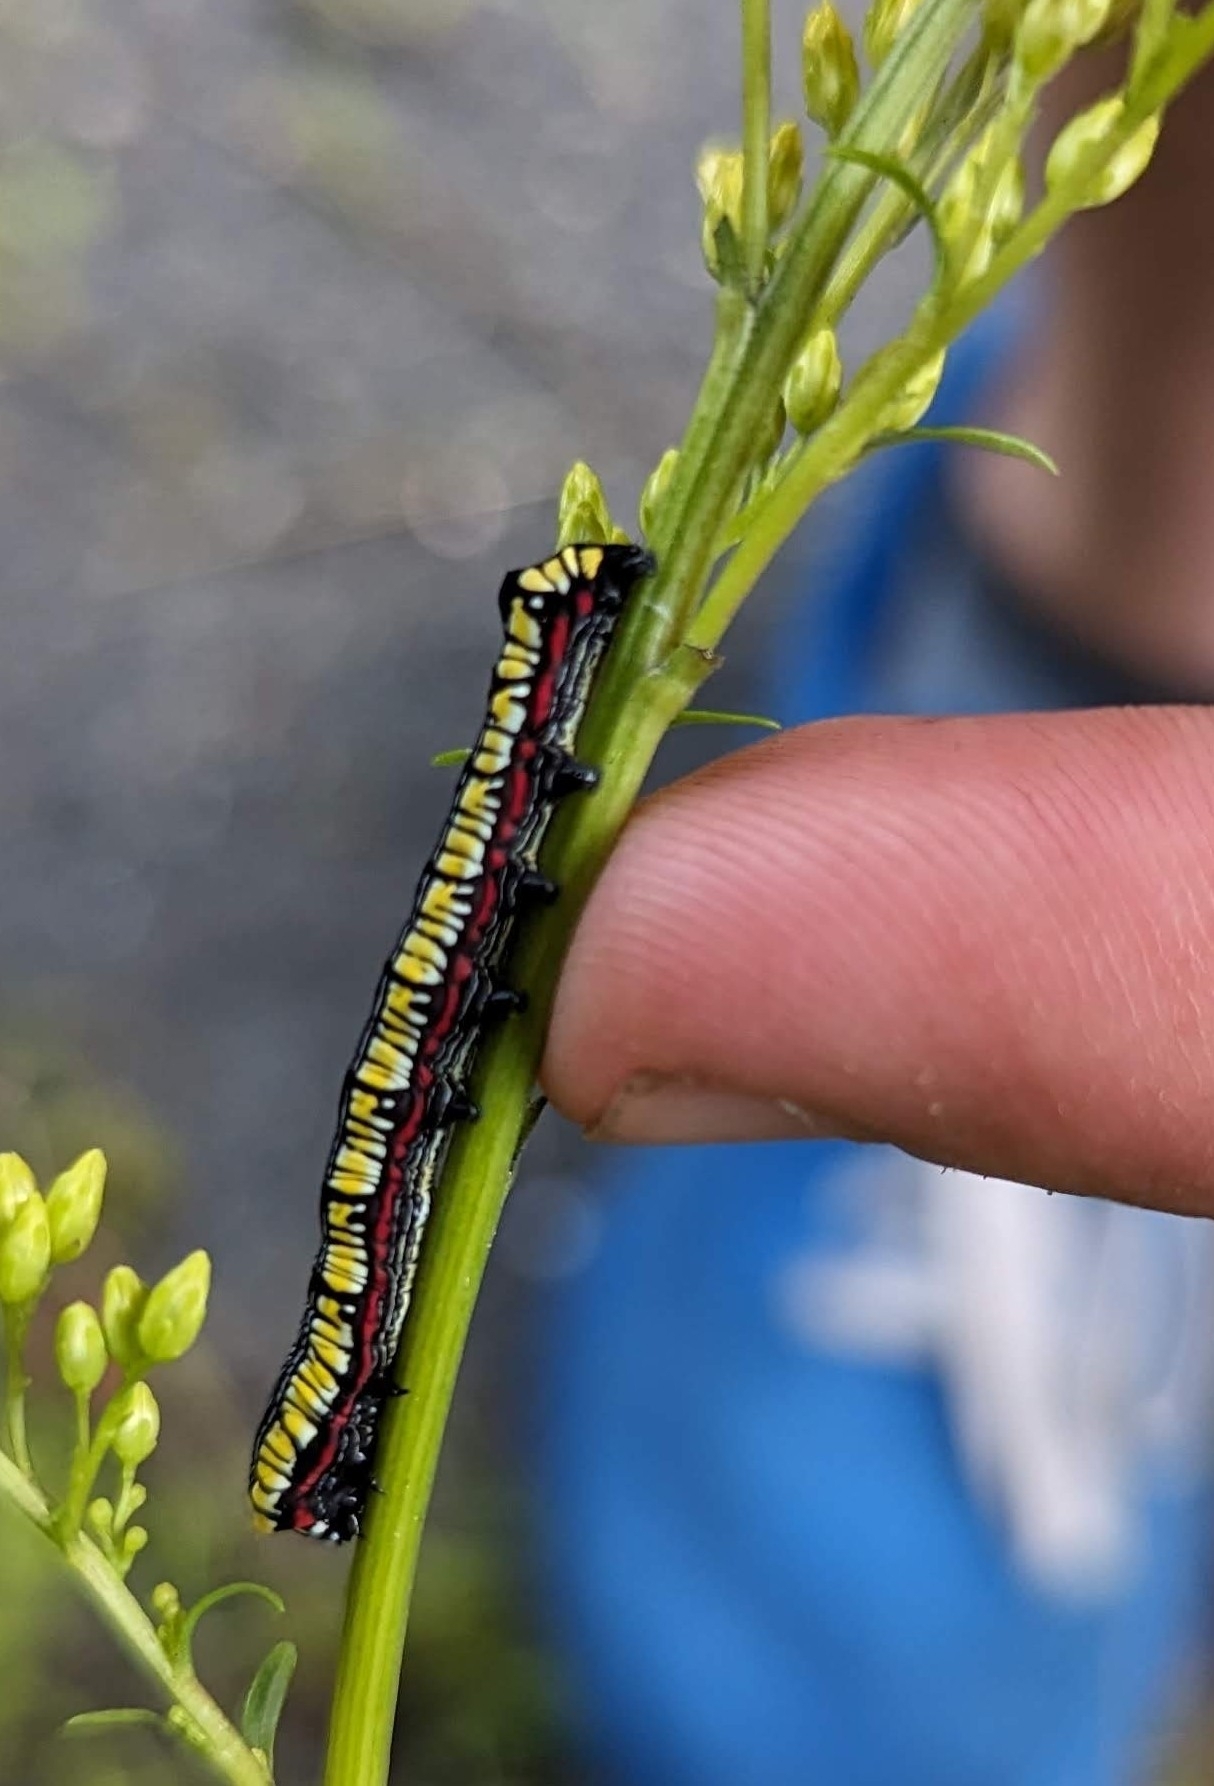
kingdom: Animalia
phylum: Arthropoda
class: Insecta
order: Lepidoptera
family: Noctuidae
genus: Cucullia
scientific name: Cucullia convexipennis
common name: Brown-hooded owlet
